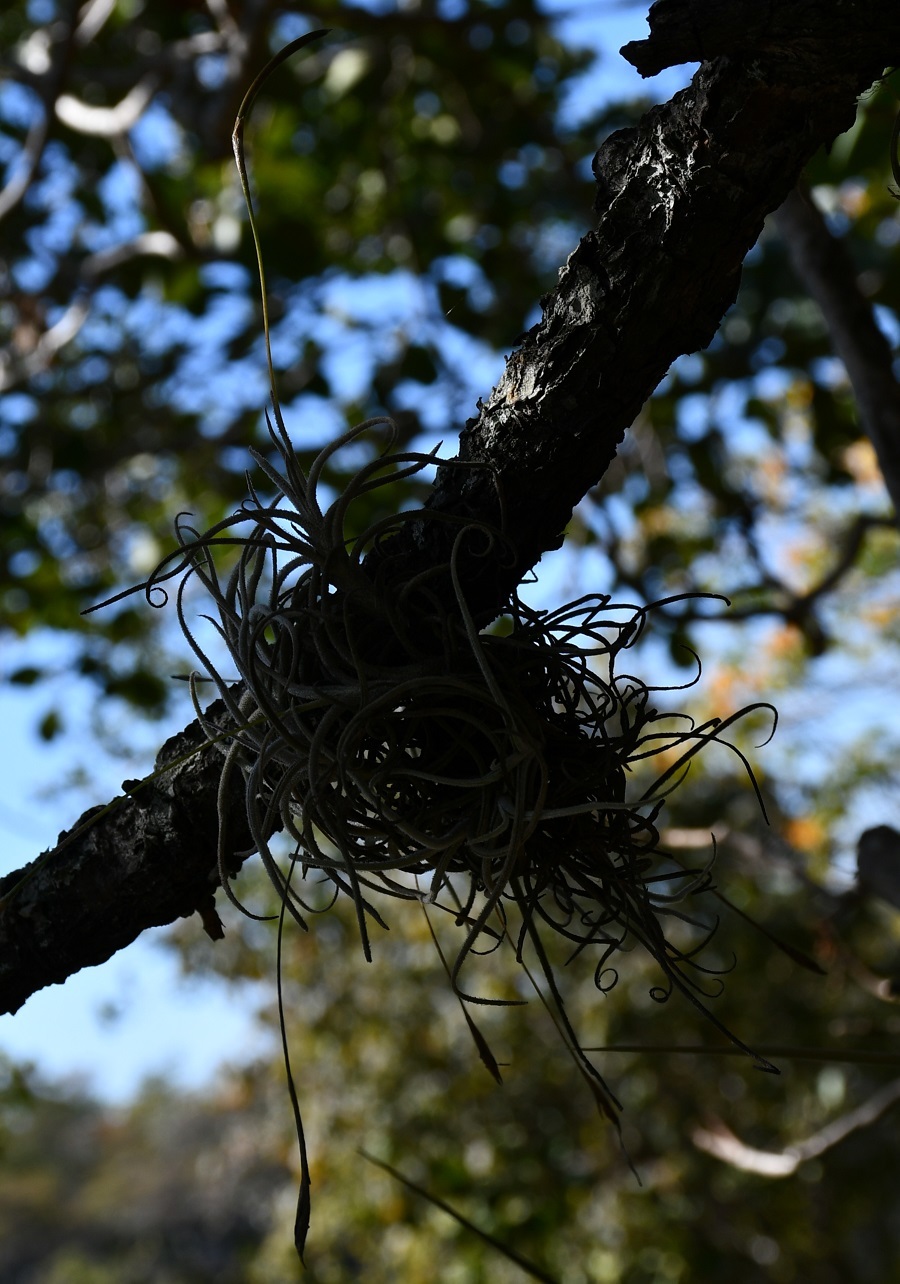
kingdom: Plantae
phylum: Tracheophyta
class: Liliopsida
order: Poales
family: Bromeliaceae
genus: Tillandsia
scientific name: Tillandsia recurvata
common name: Small ballmoss
